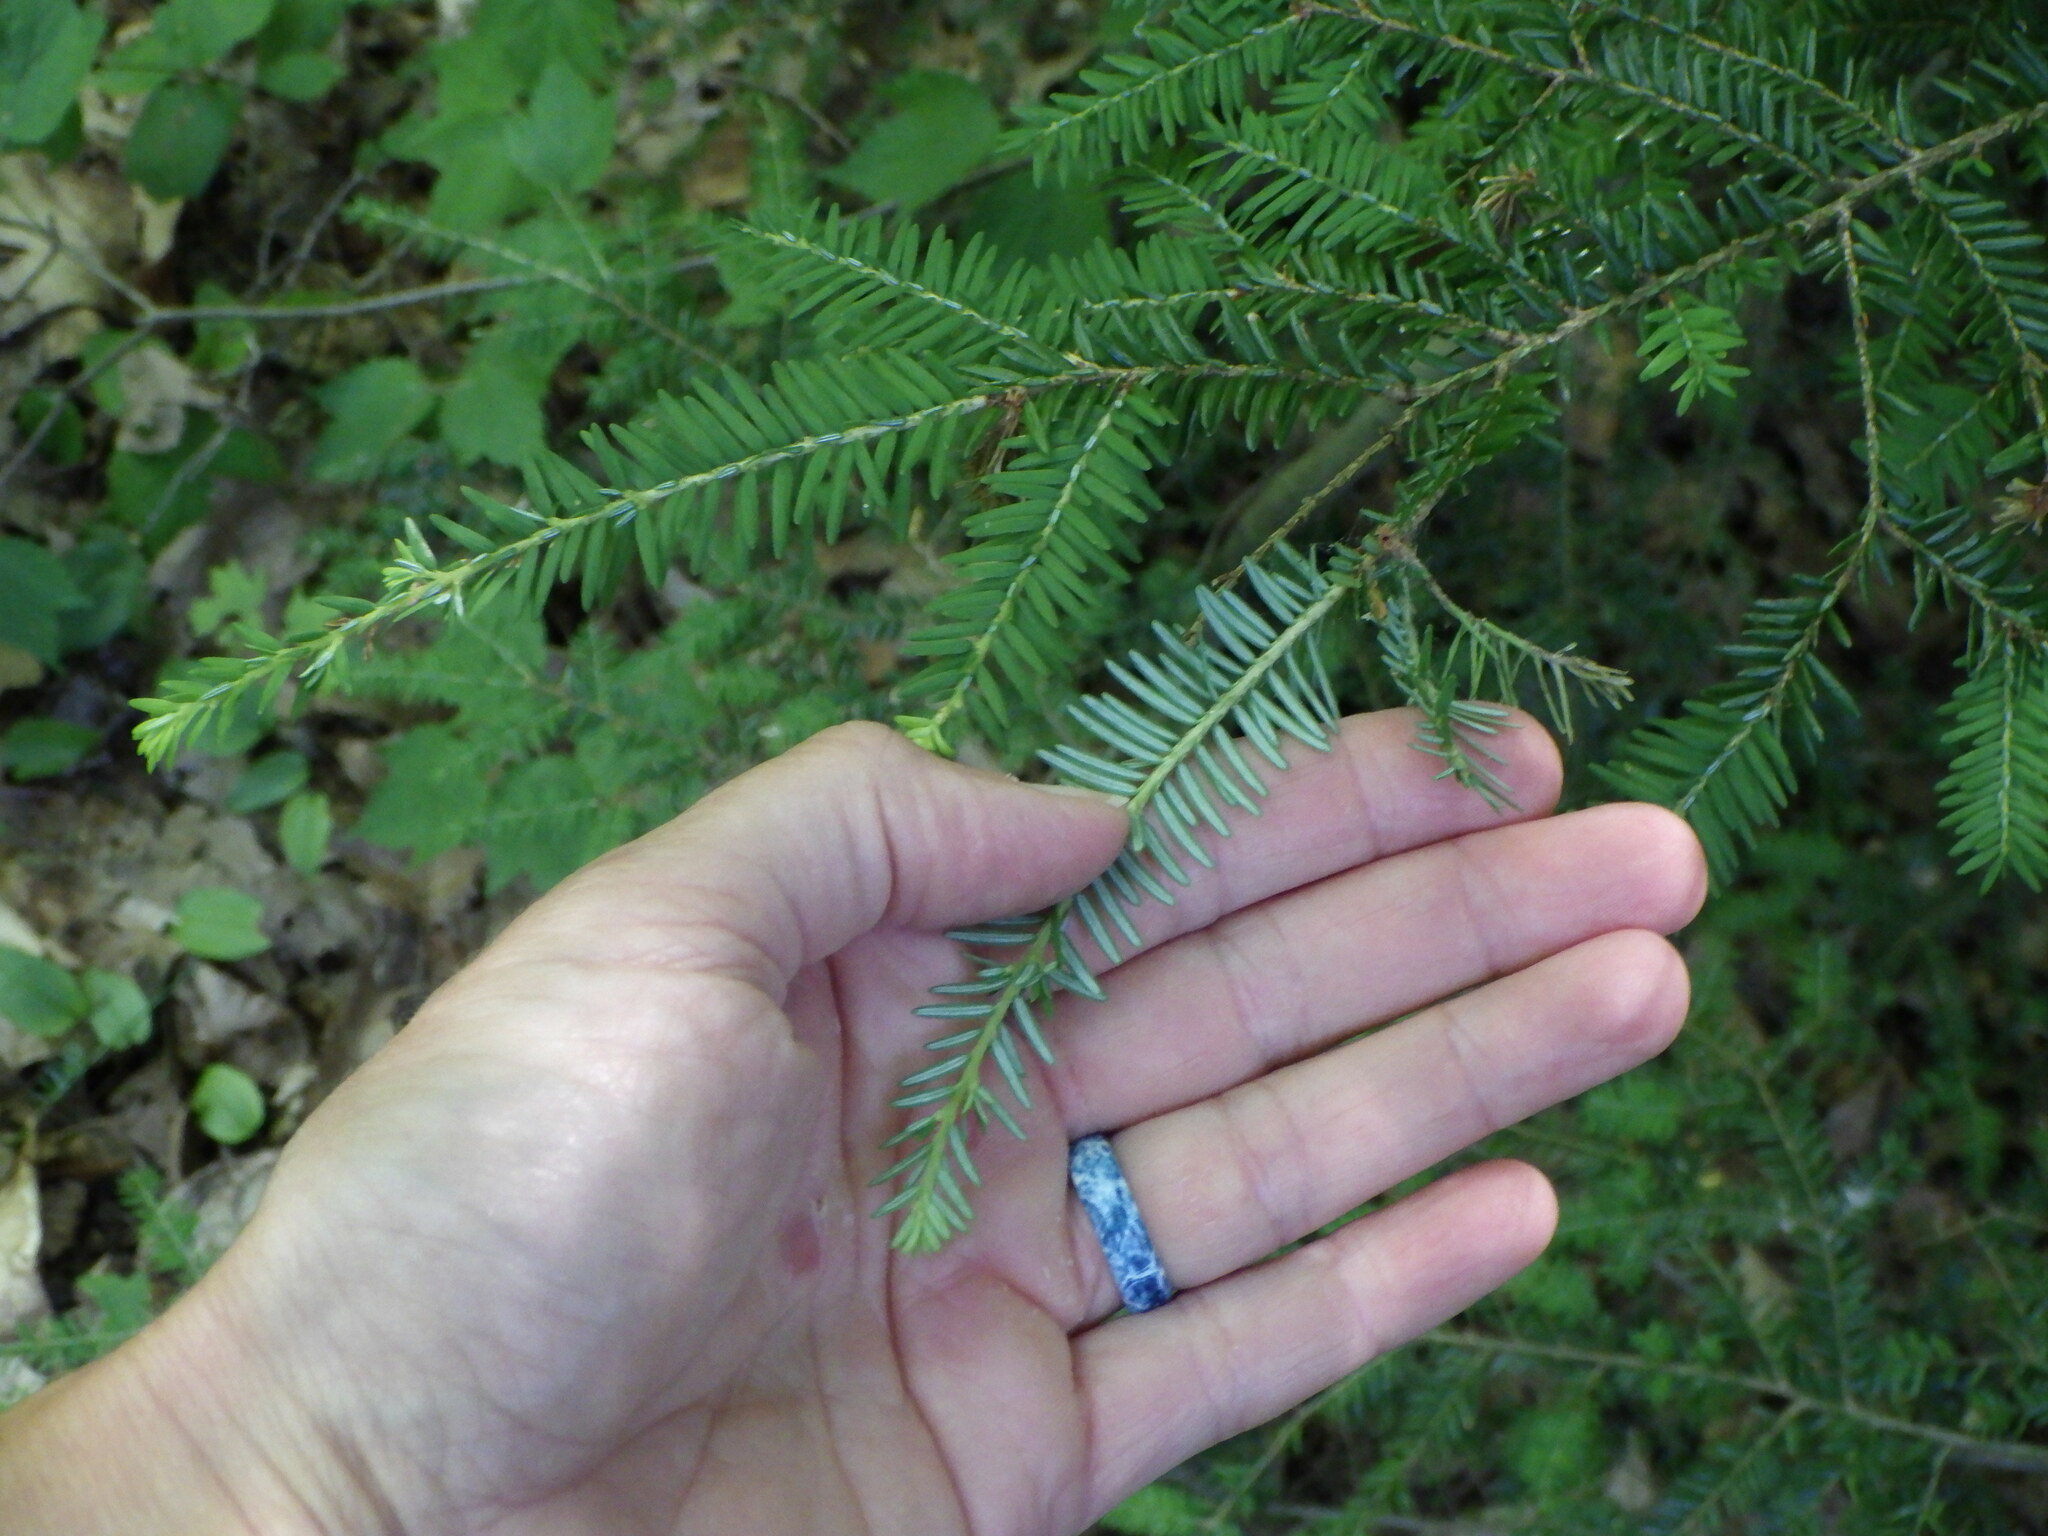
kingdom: Plantae
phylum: Tracheophyta
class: Pinopsida
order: Pinales
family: Pinaceae
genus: Tsuga
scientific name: Tsuga canadensis
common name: Eastern hemlock
